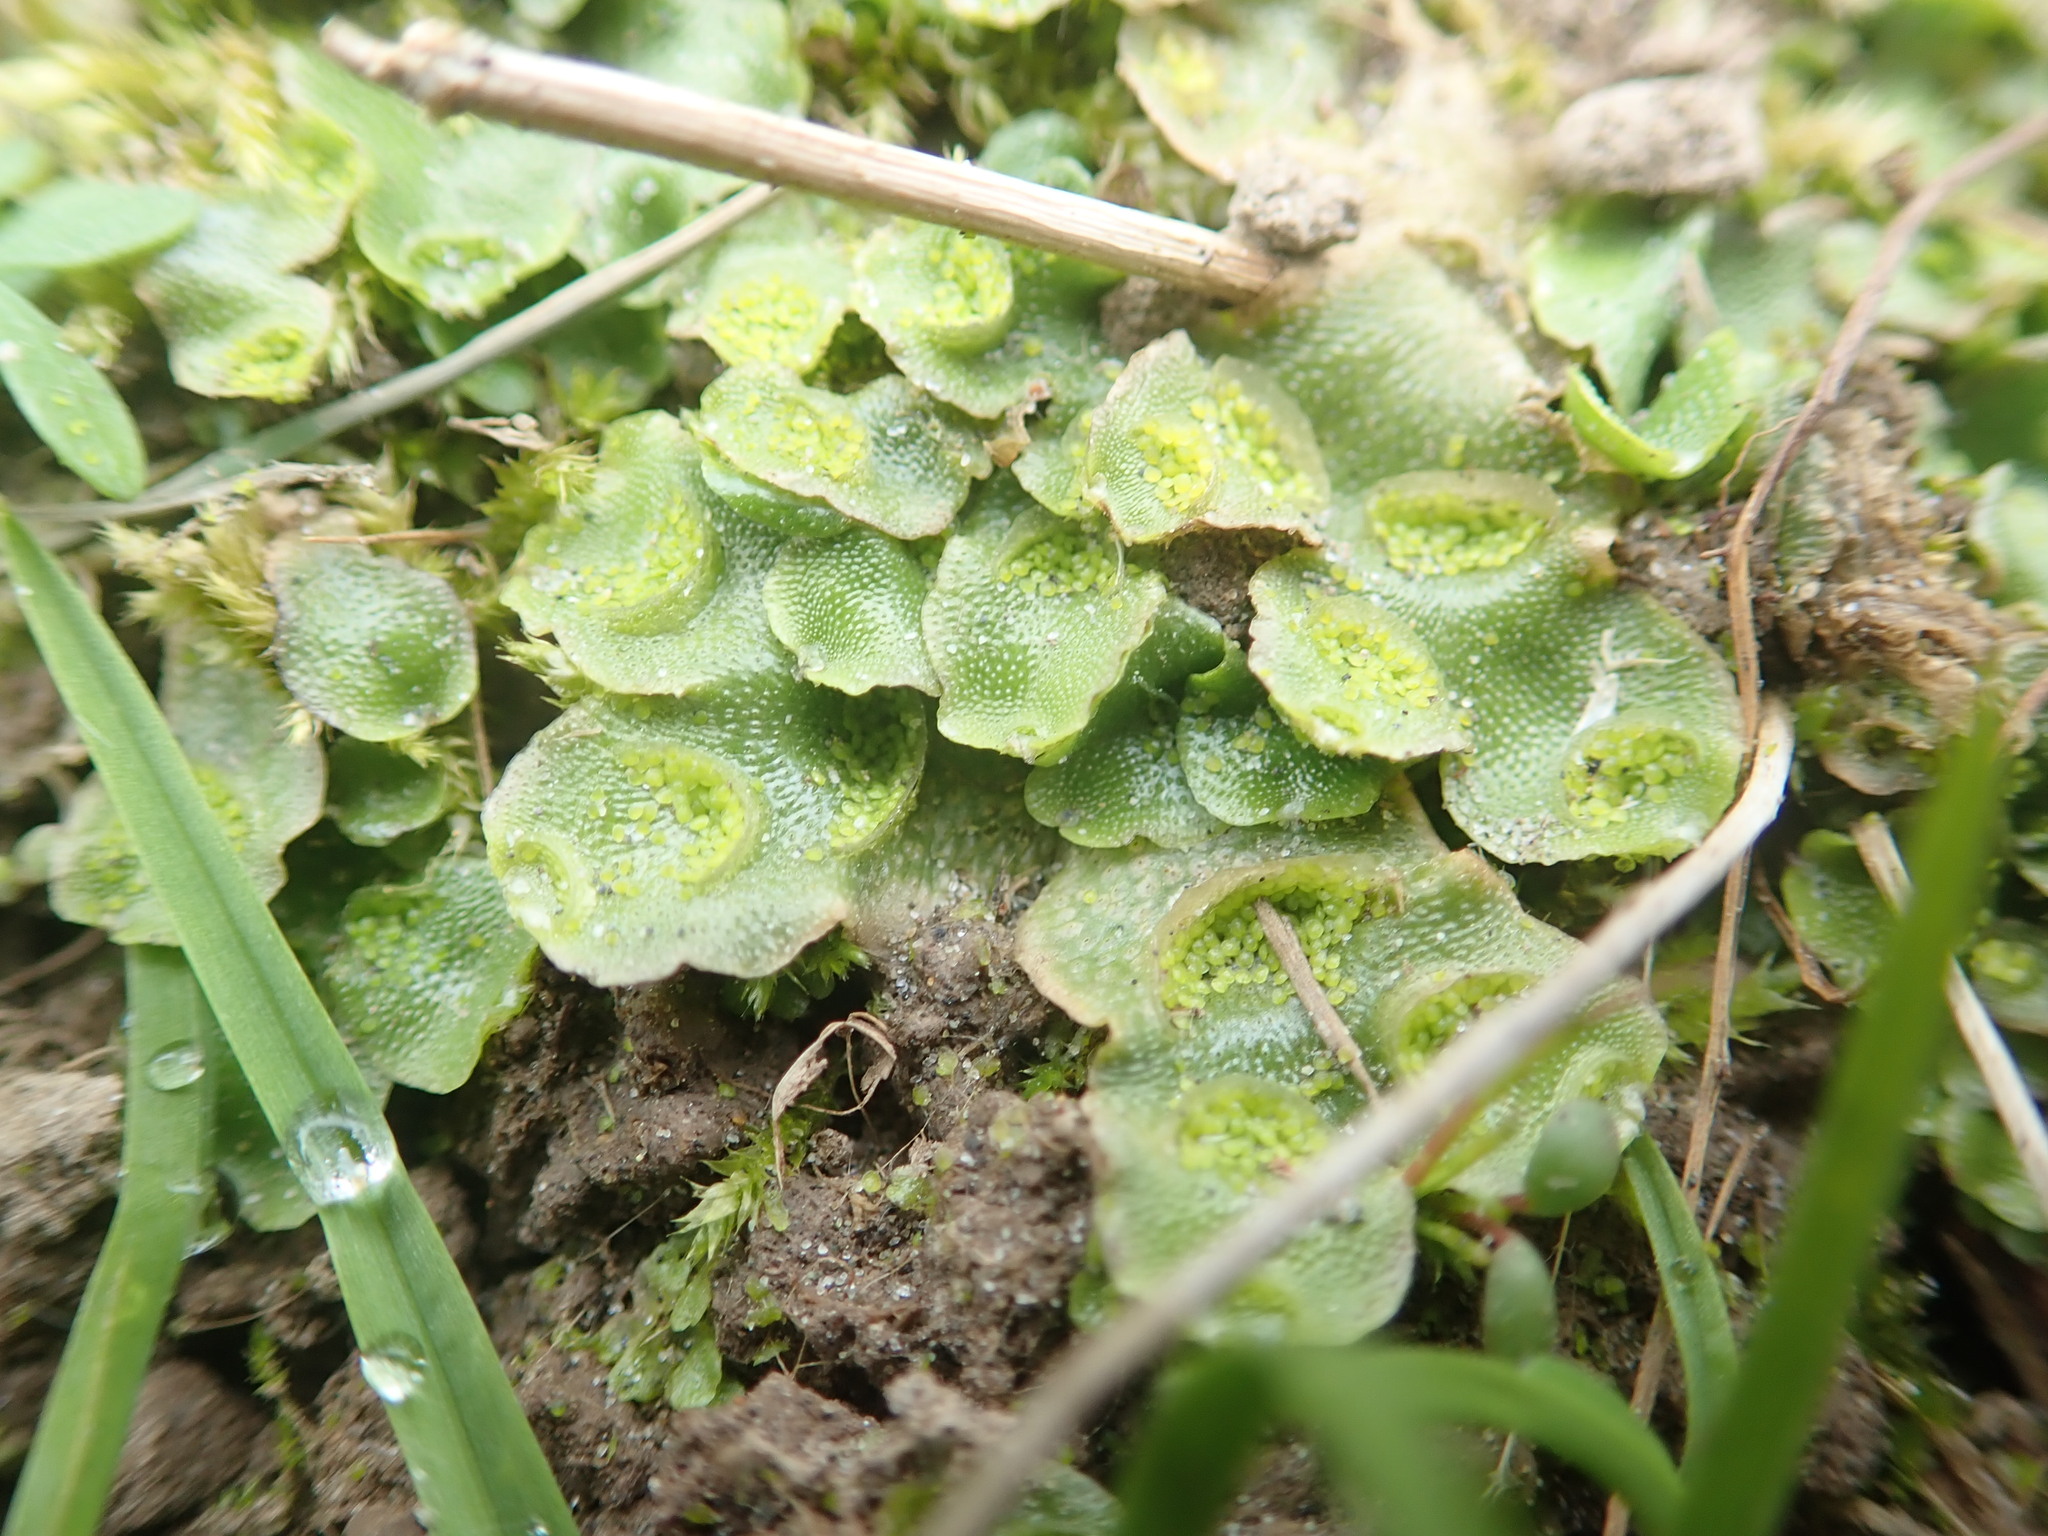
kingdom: Plantae
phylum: Marchantiophyta
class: Marchantiopsida
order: Lunulariales
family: Lunulariaceae
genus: Lunularia
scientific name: Lunularia cruciata
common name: Crescent-cup liverwort
